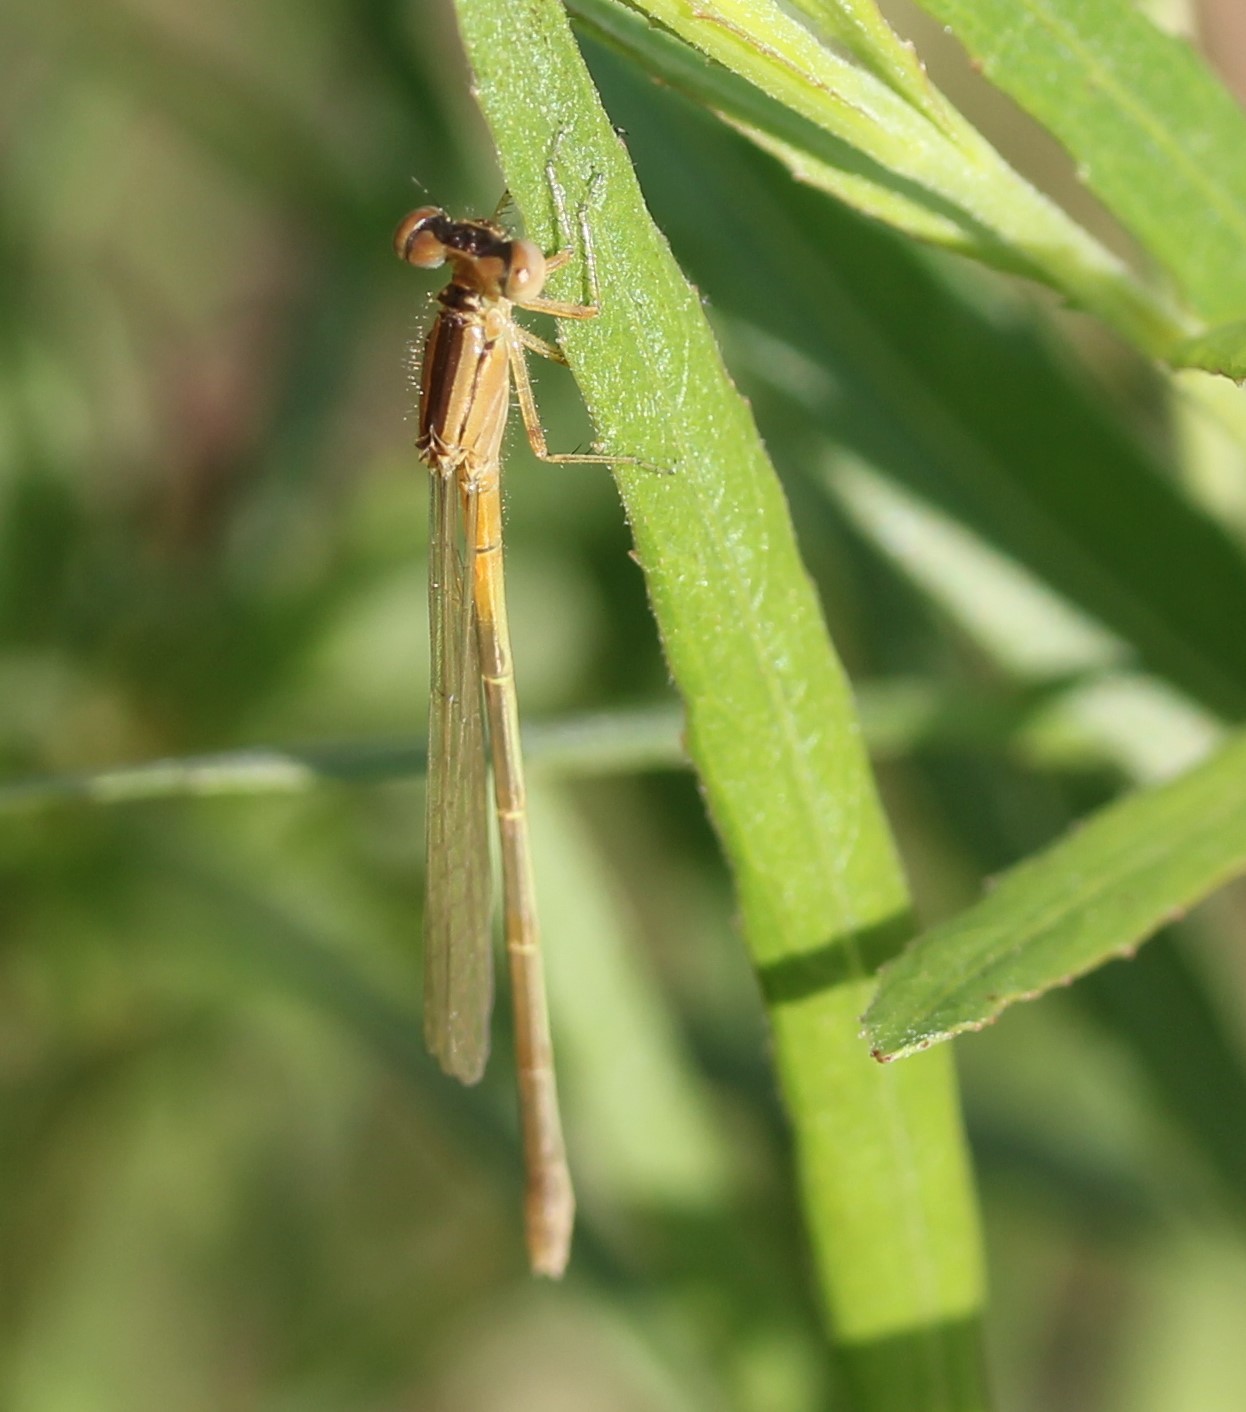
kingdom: Animalia
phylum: Arthropoda
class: Insecta
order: Odonata
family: Coenagrionidae
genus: Ischnura
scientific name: Ischnura verticalis
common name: Eastern forktail
